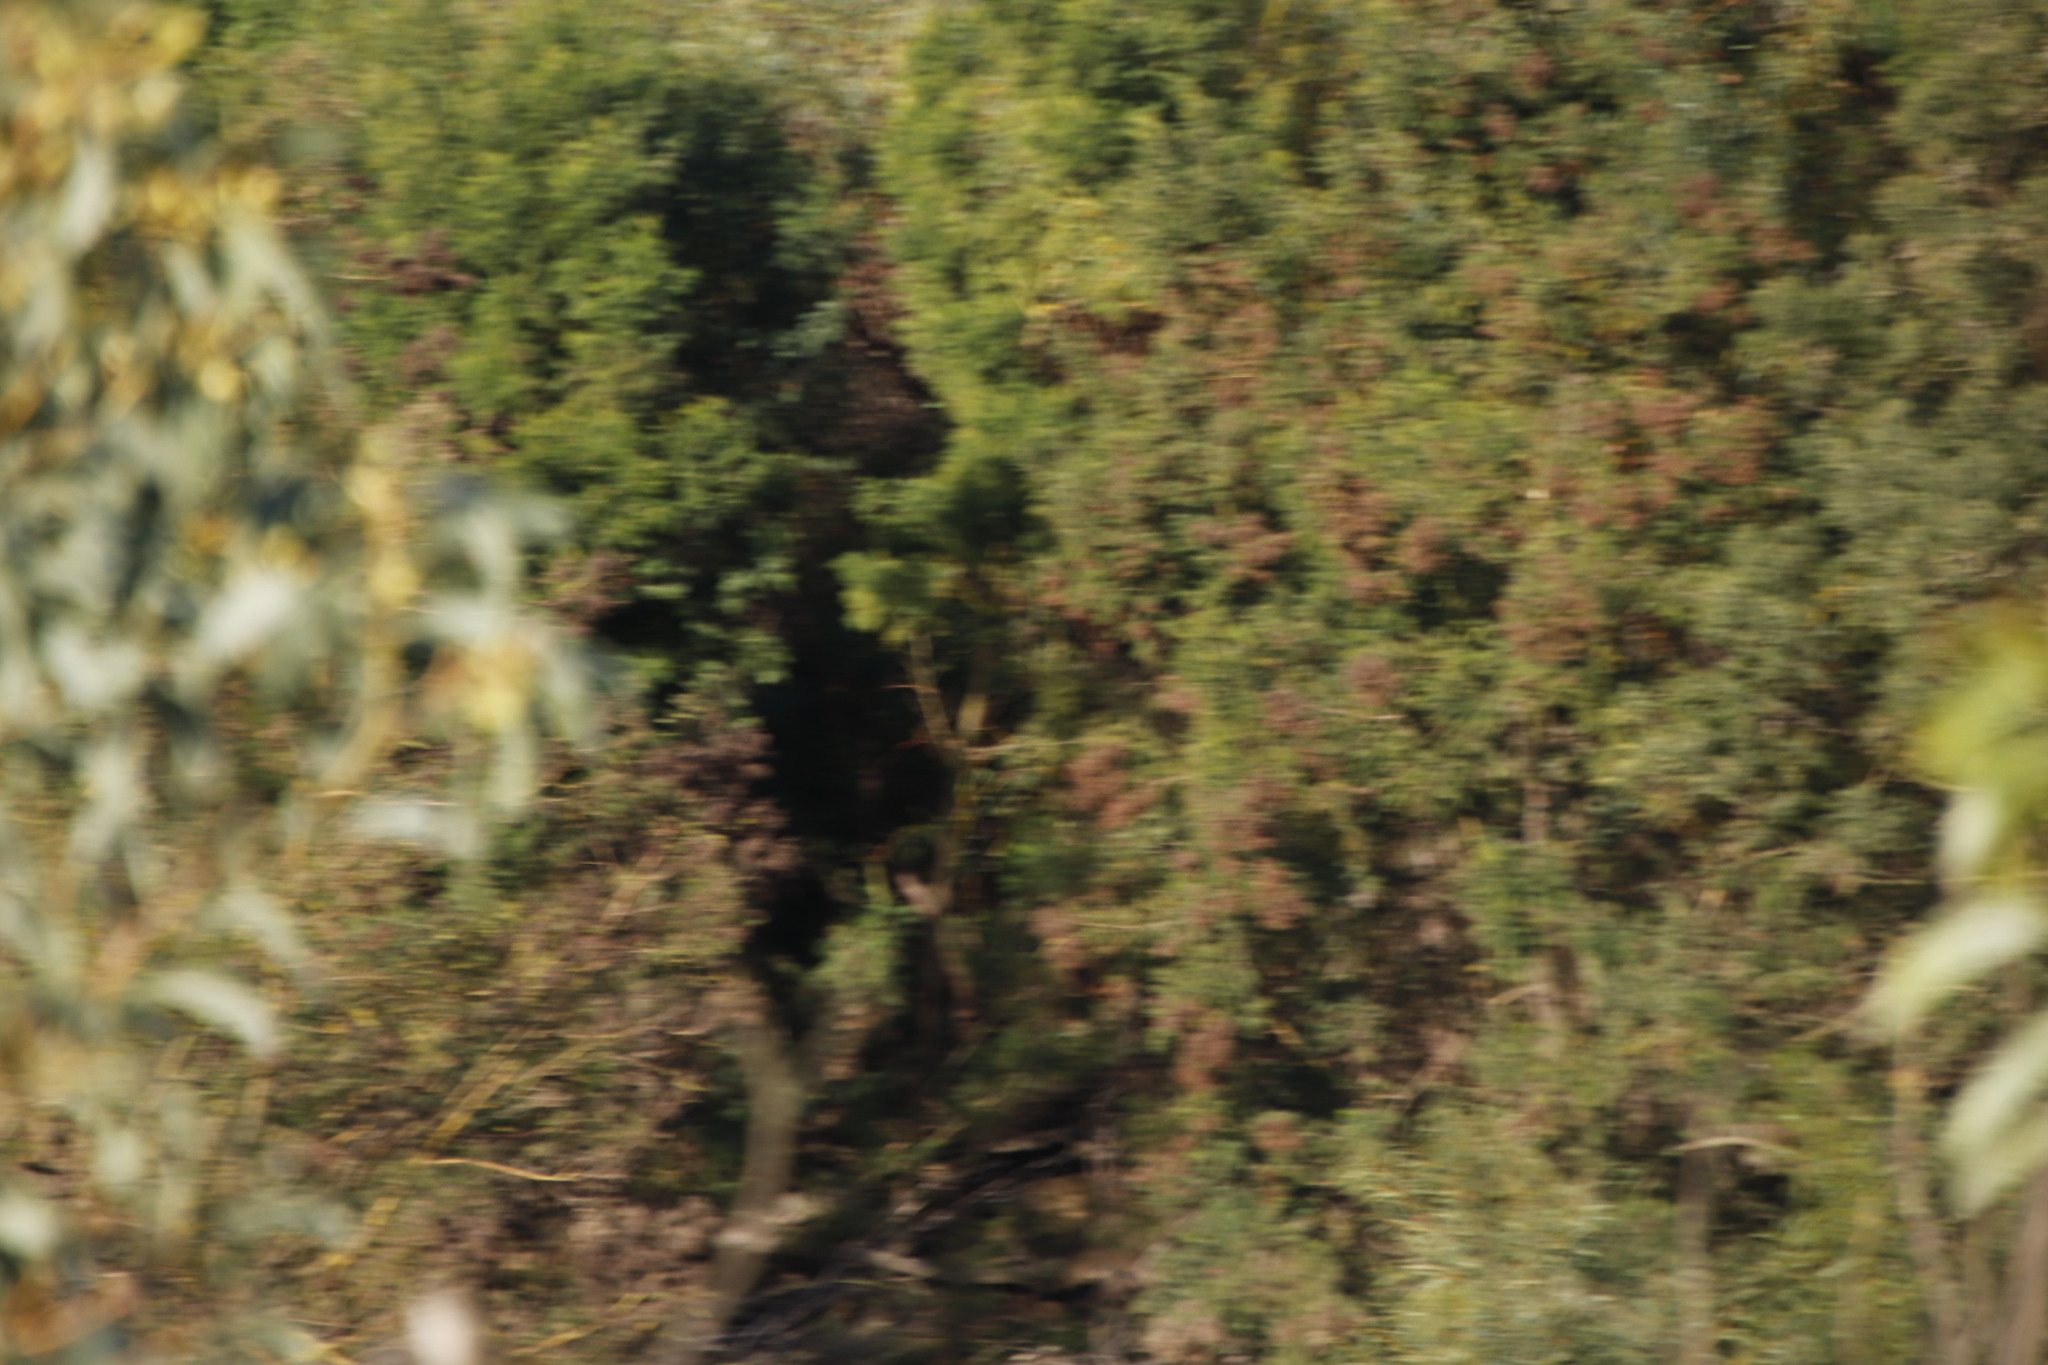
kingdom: Plantae
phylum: Tracheophyta
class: Magnoliopsida
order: Fabales
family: Fabaceae
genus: Acacia
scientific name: Acacia mearnsii
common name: Black wattle
